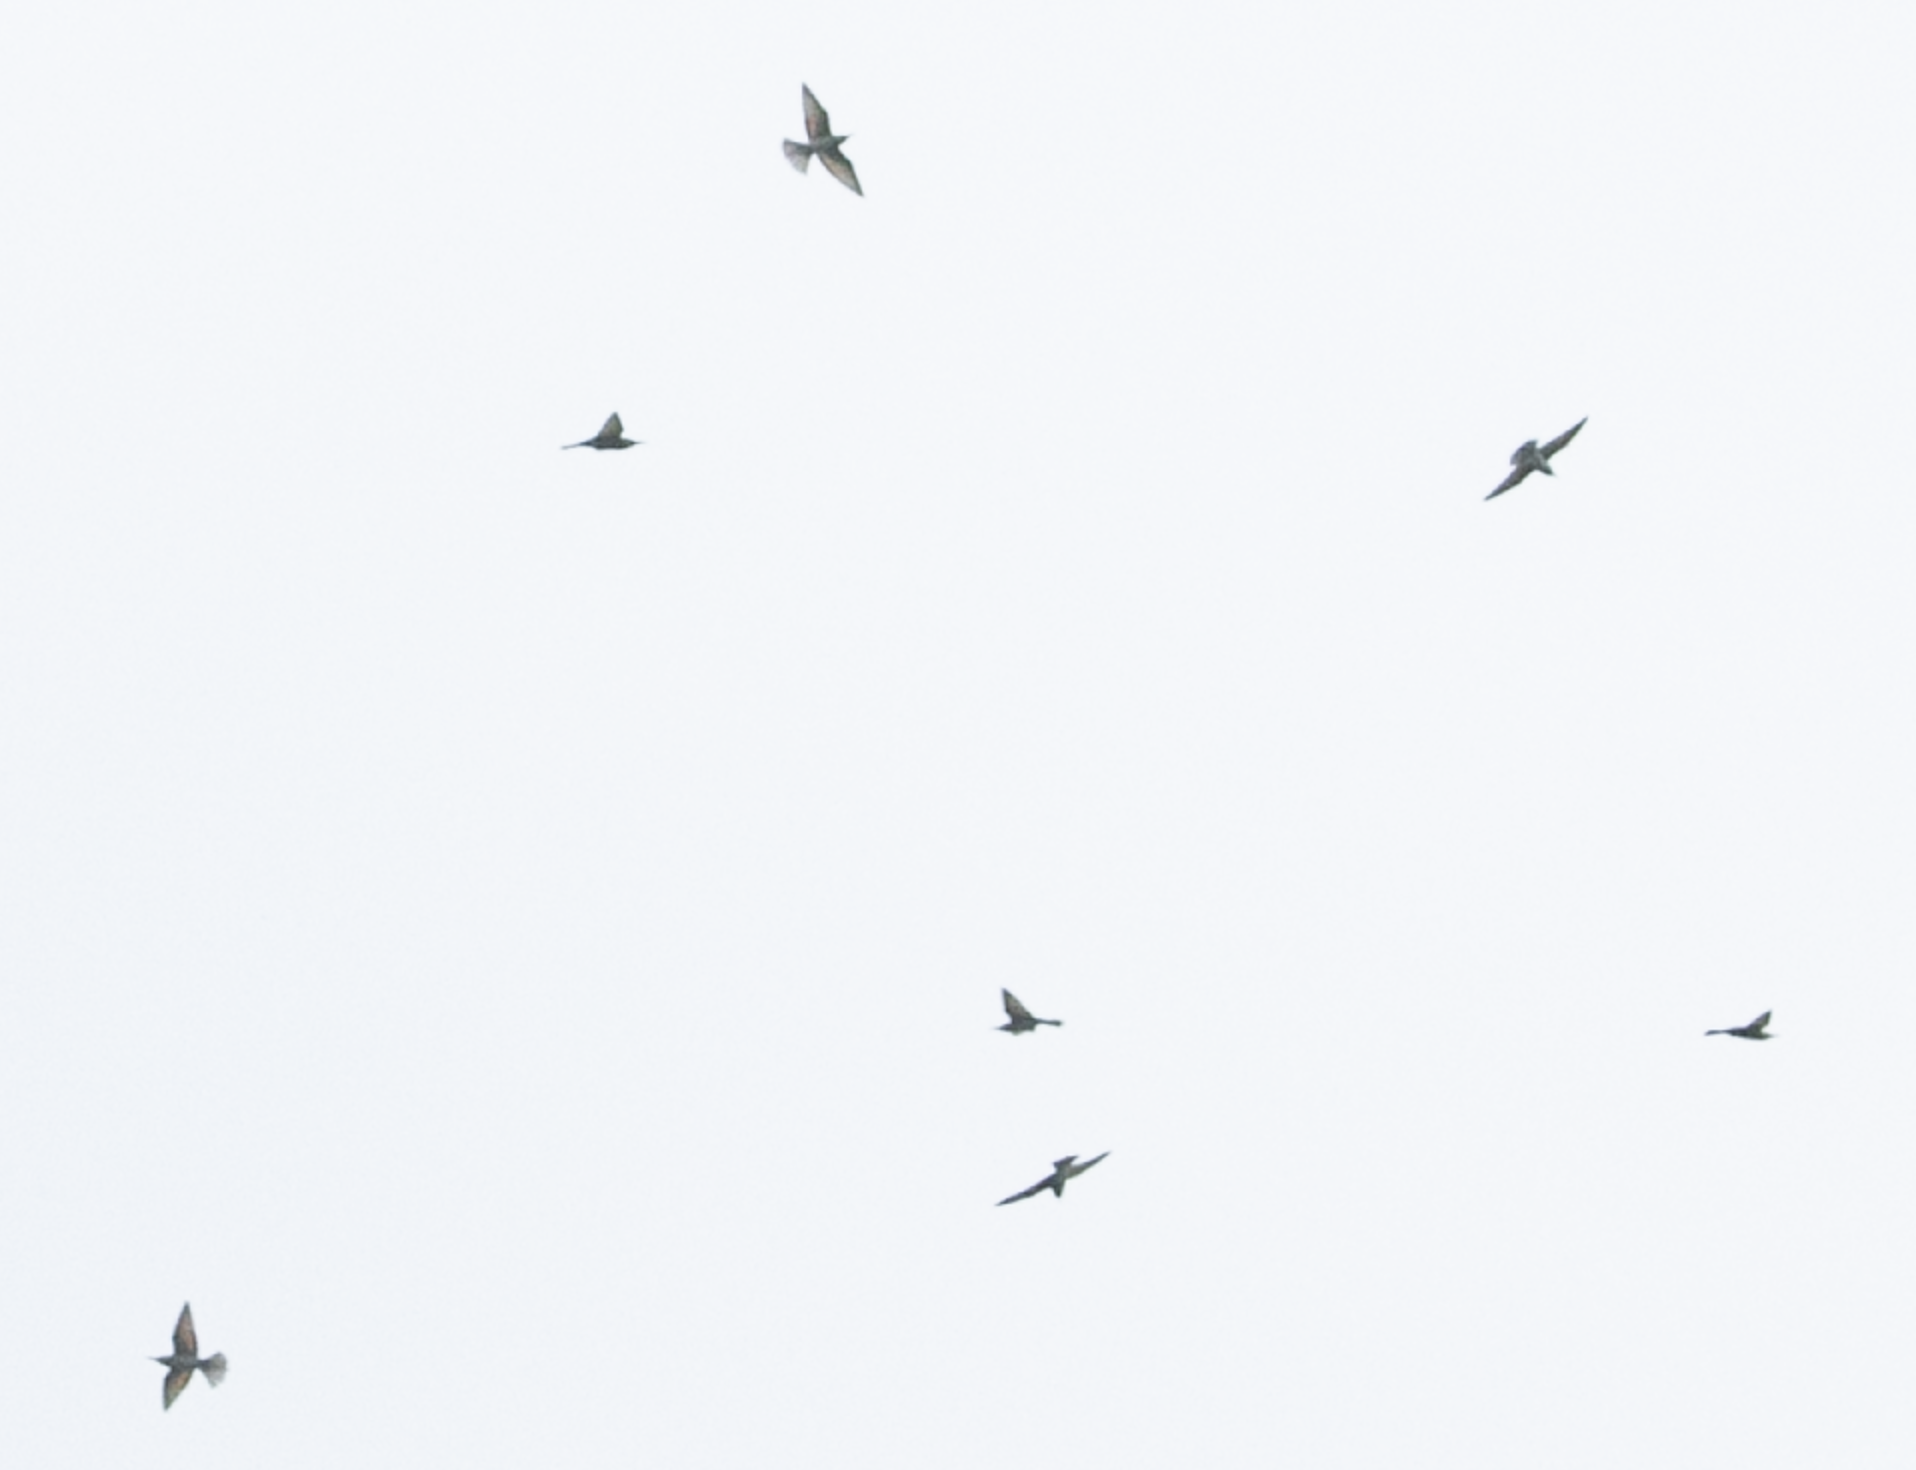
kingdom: Animalia
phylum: Chordata
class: Aves
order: Coraciiformes
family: Meropidae
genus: Merops
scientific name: Merops apiaster
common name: European bee-eater
